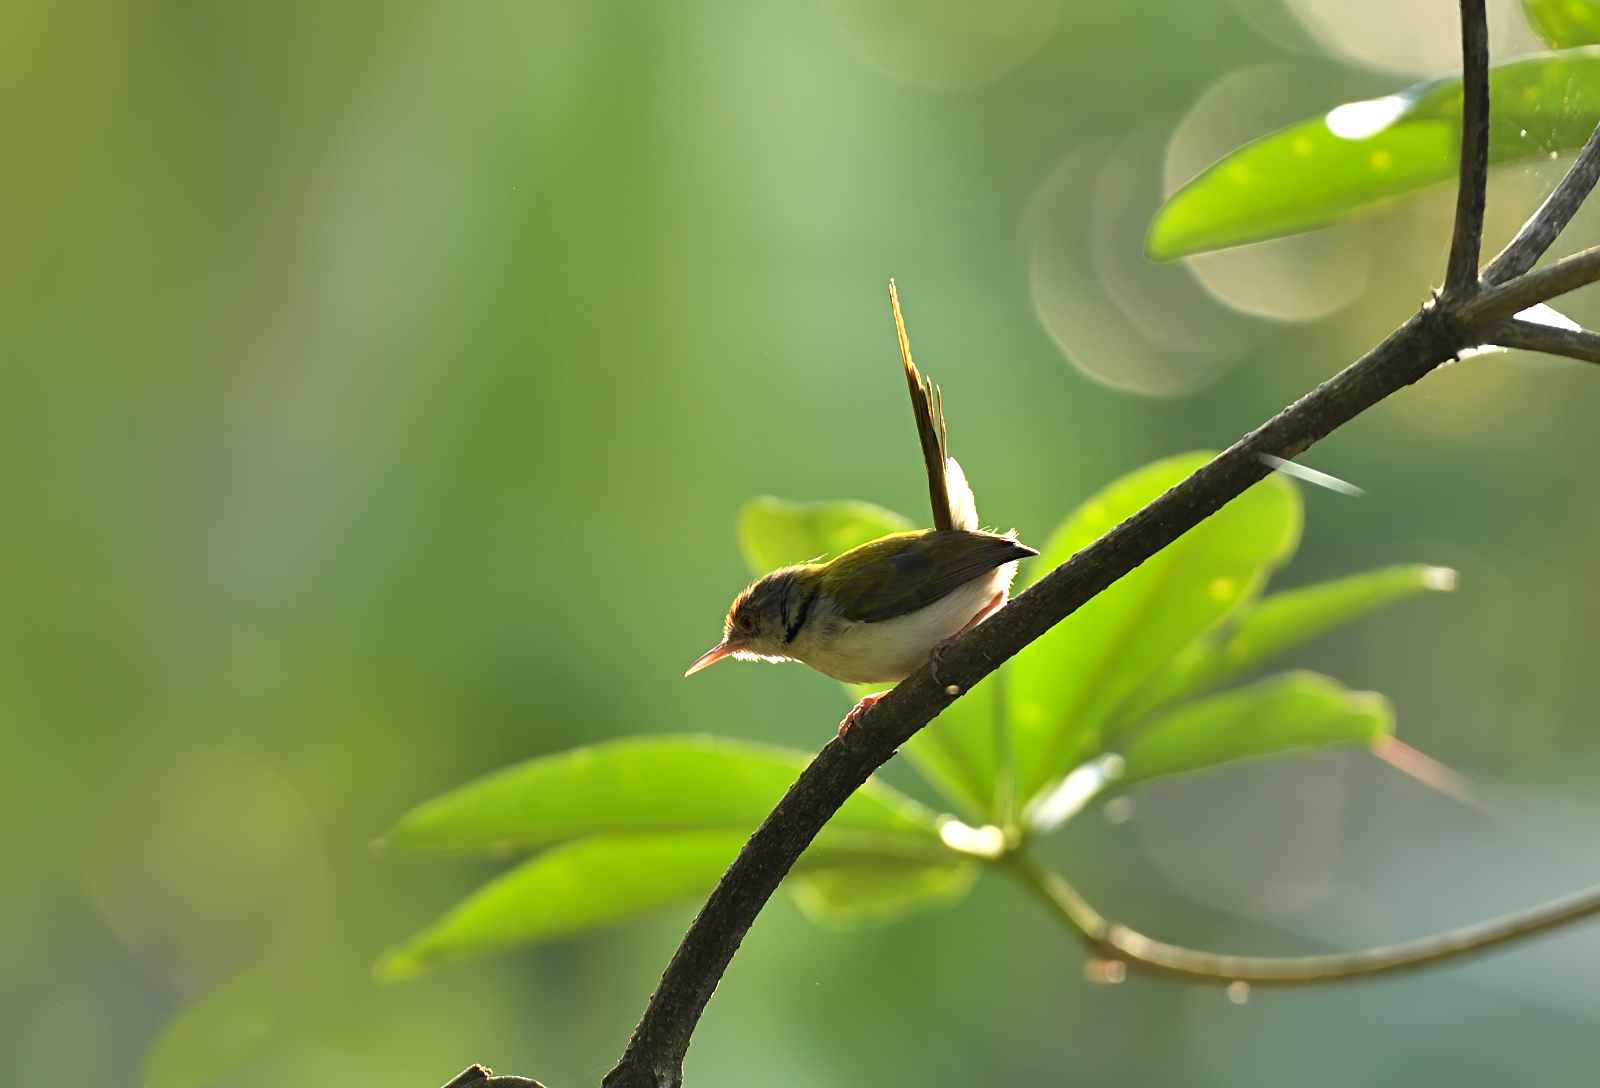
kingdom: Animalia
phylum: Chordata
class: Aves
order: Passeriformes
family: Cisticolidae
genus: Orthotomus
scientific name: Orthotomus sutorius
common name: Common tailorbird
